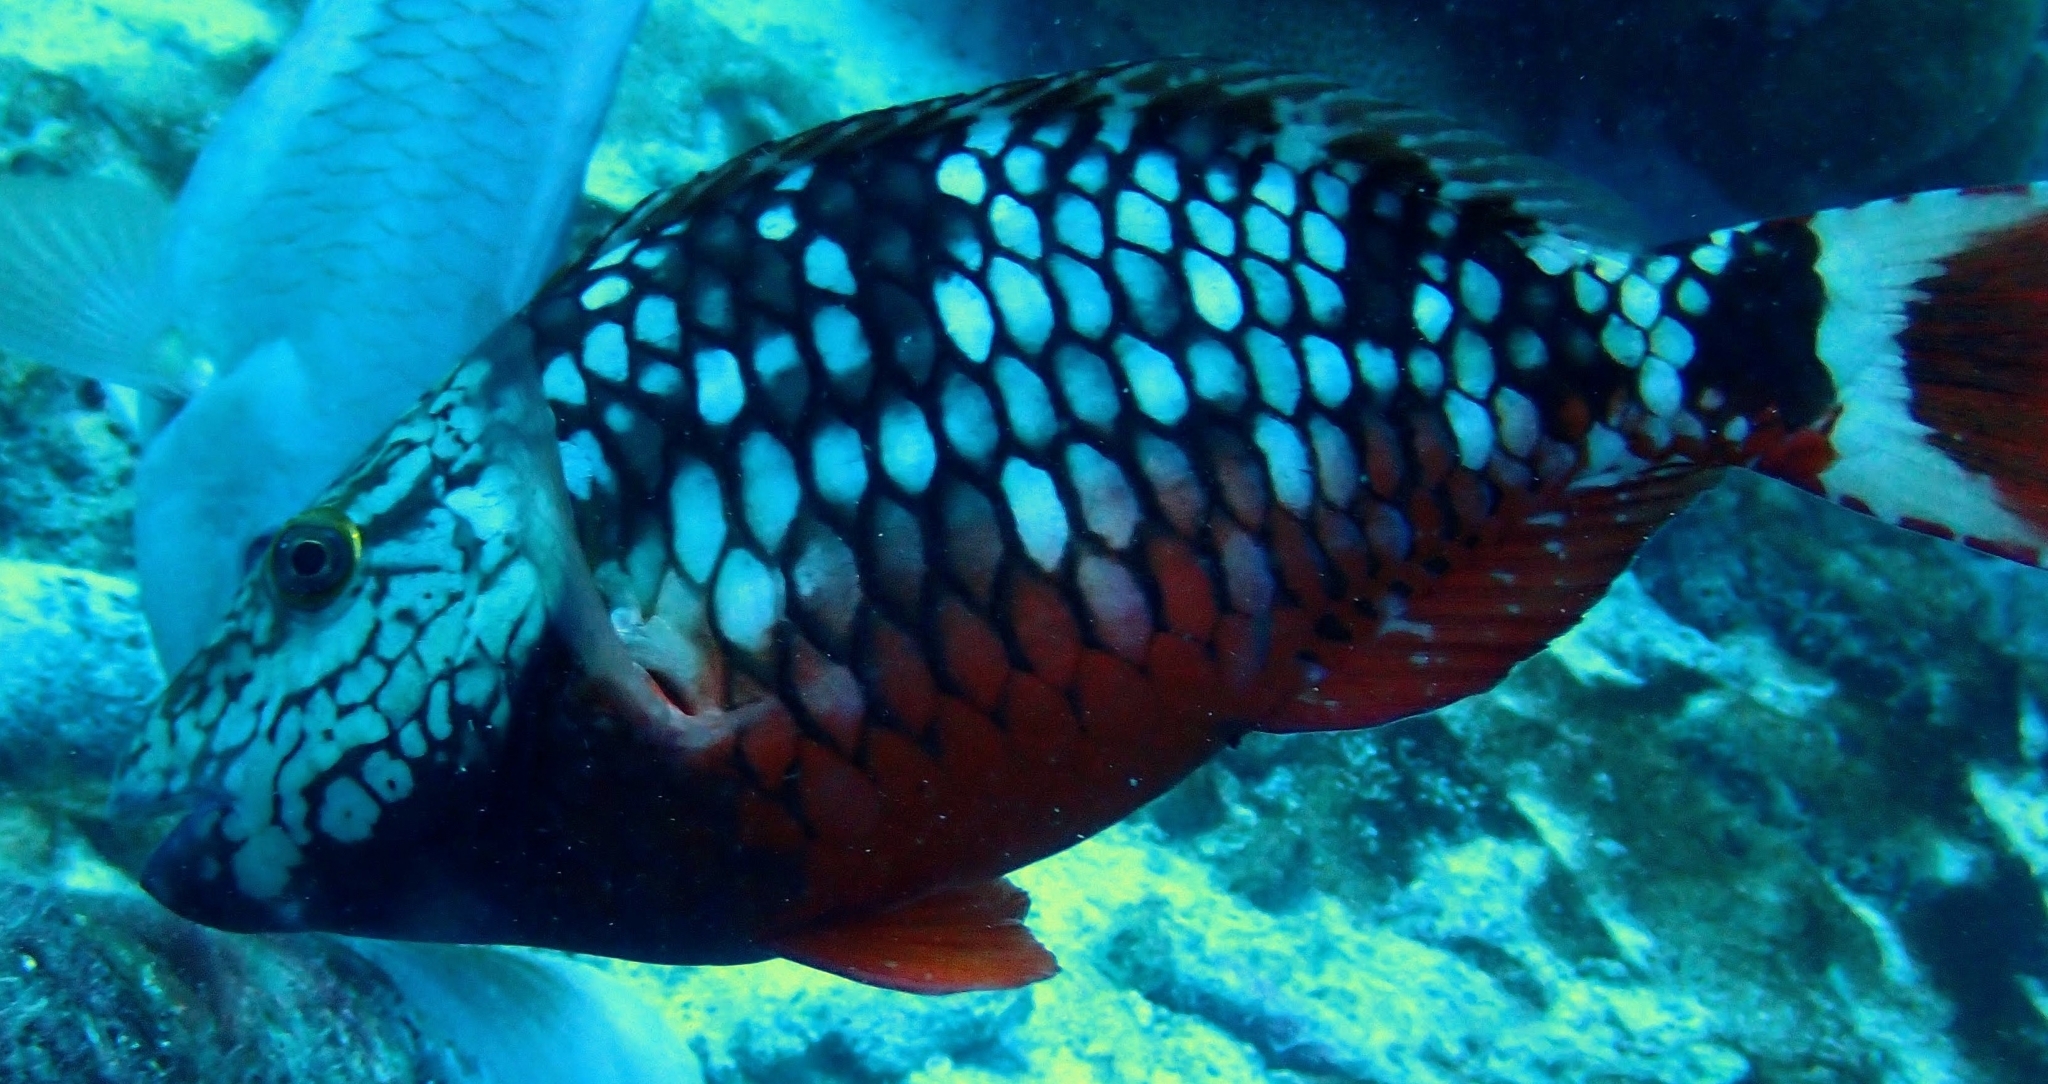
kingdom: Animalia
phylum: Chordata
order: Perciformes
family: Scaridae
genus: Sparisoma
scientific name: Sparisoma viride
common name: Stoplight parrotfish
